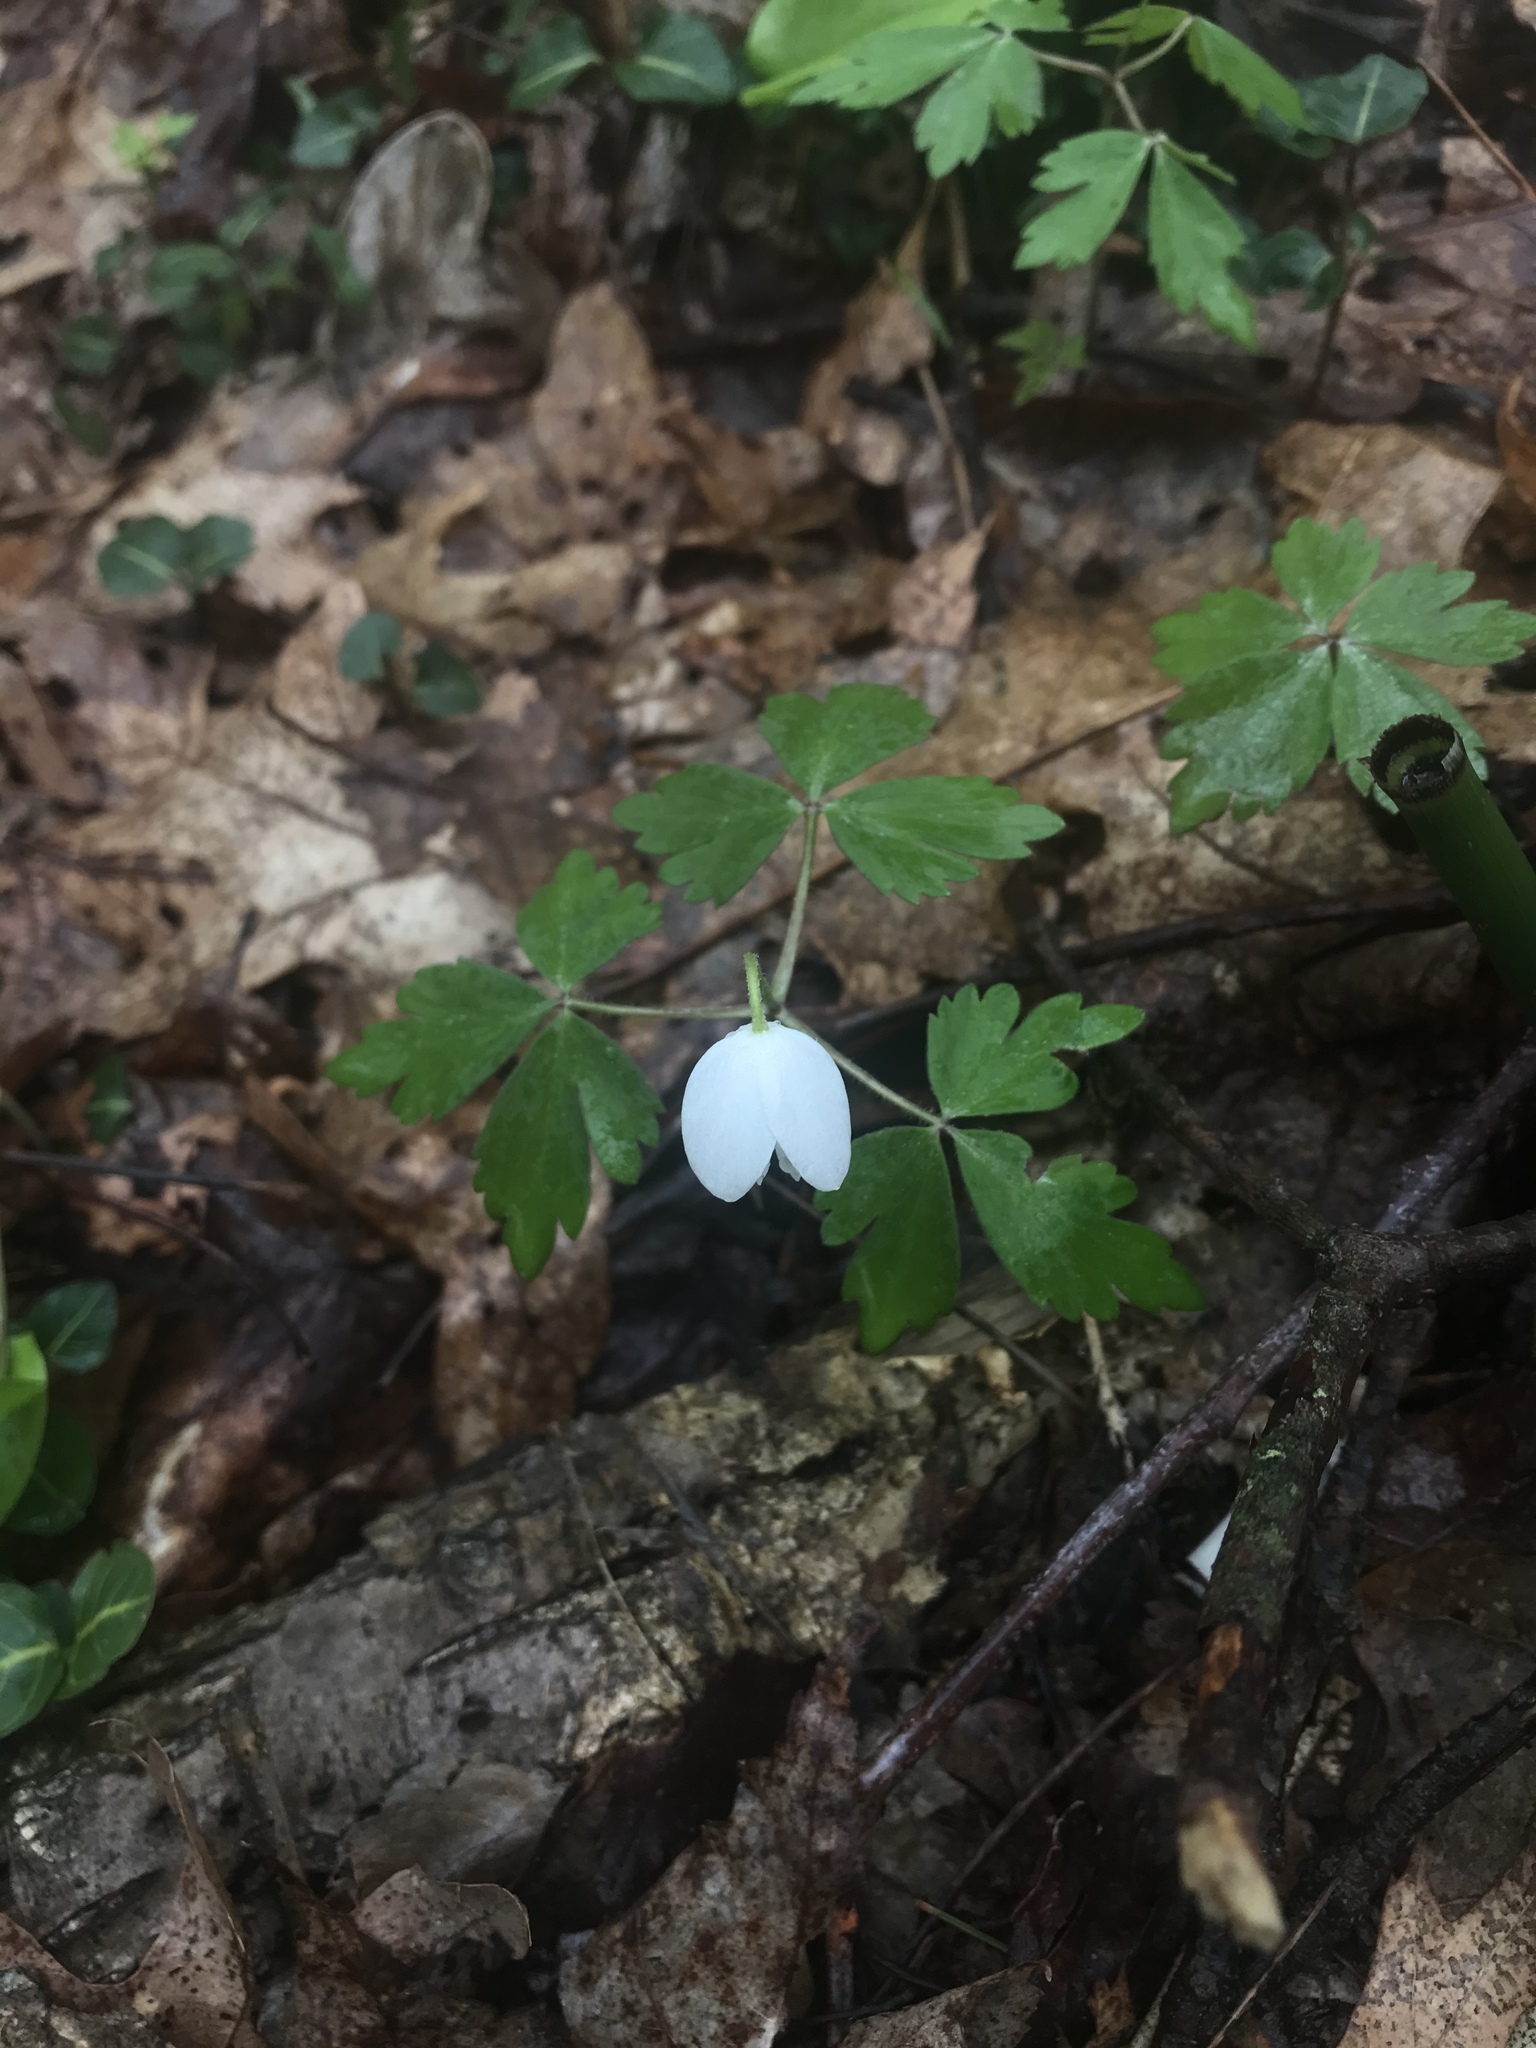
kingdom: Plantae
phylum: Tracheophyta
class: Magnoliopsida
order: Ranunculales
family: Ranunculaceae
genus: Anemone
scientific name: Anemone quinquefolia
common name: Wood anemone
